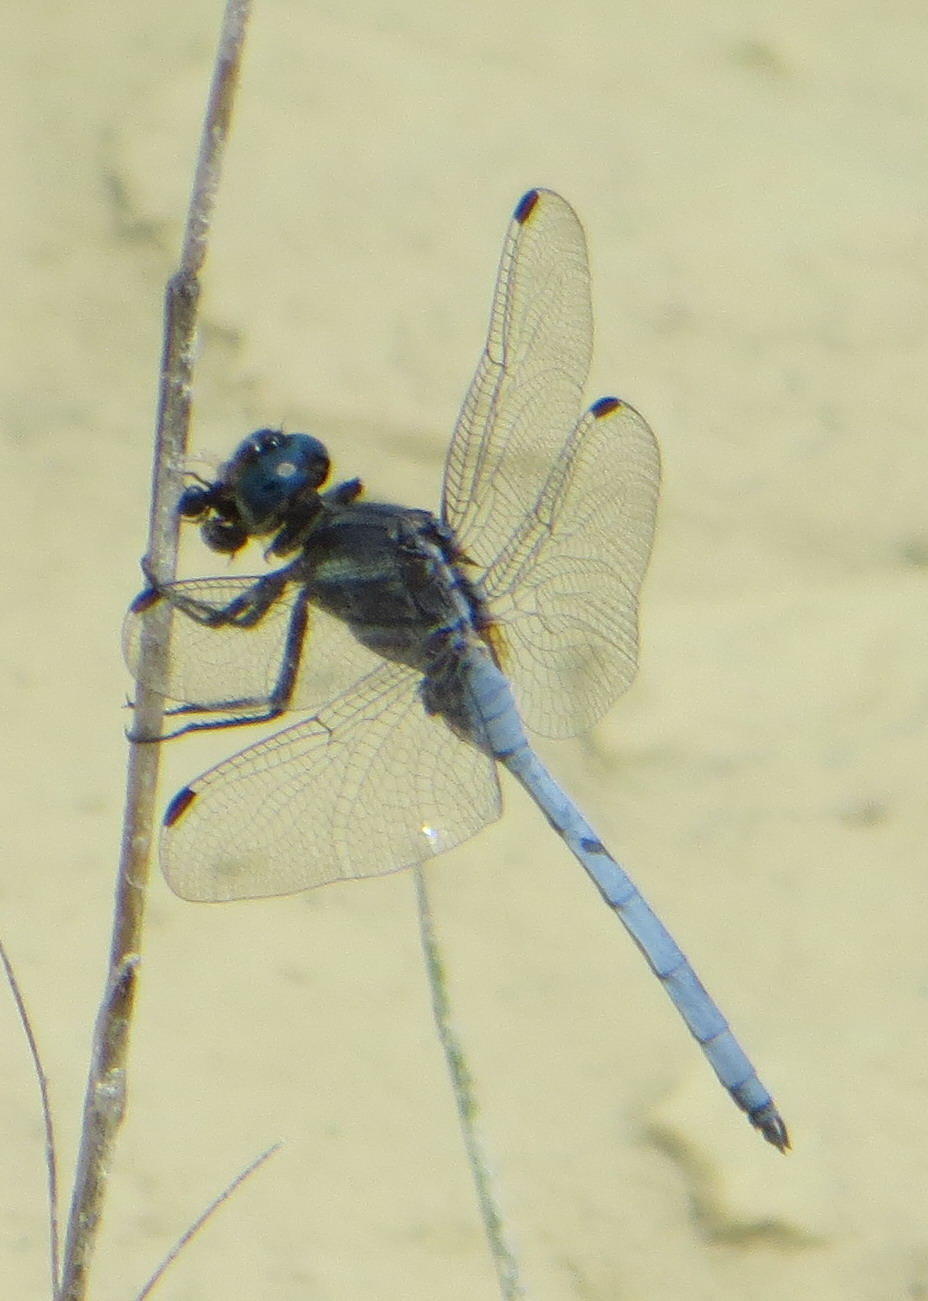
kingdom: Animalia
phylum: Arthropoda
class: Insecta
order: Odonata
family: Libellulidae
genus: Orthetrum
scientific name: Orthetrum julia
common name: Julia skimmer
